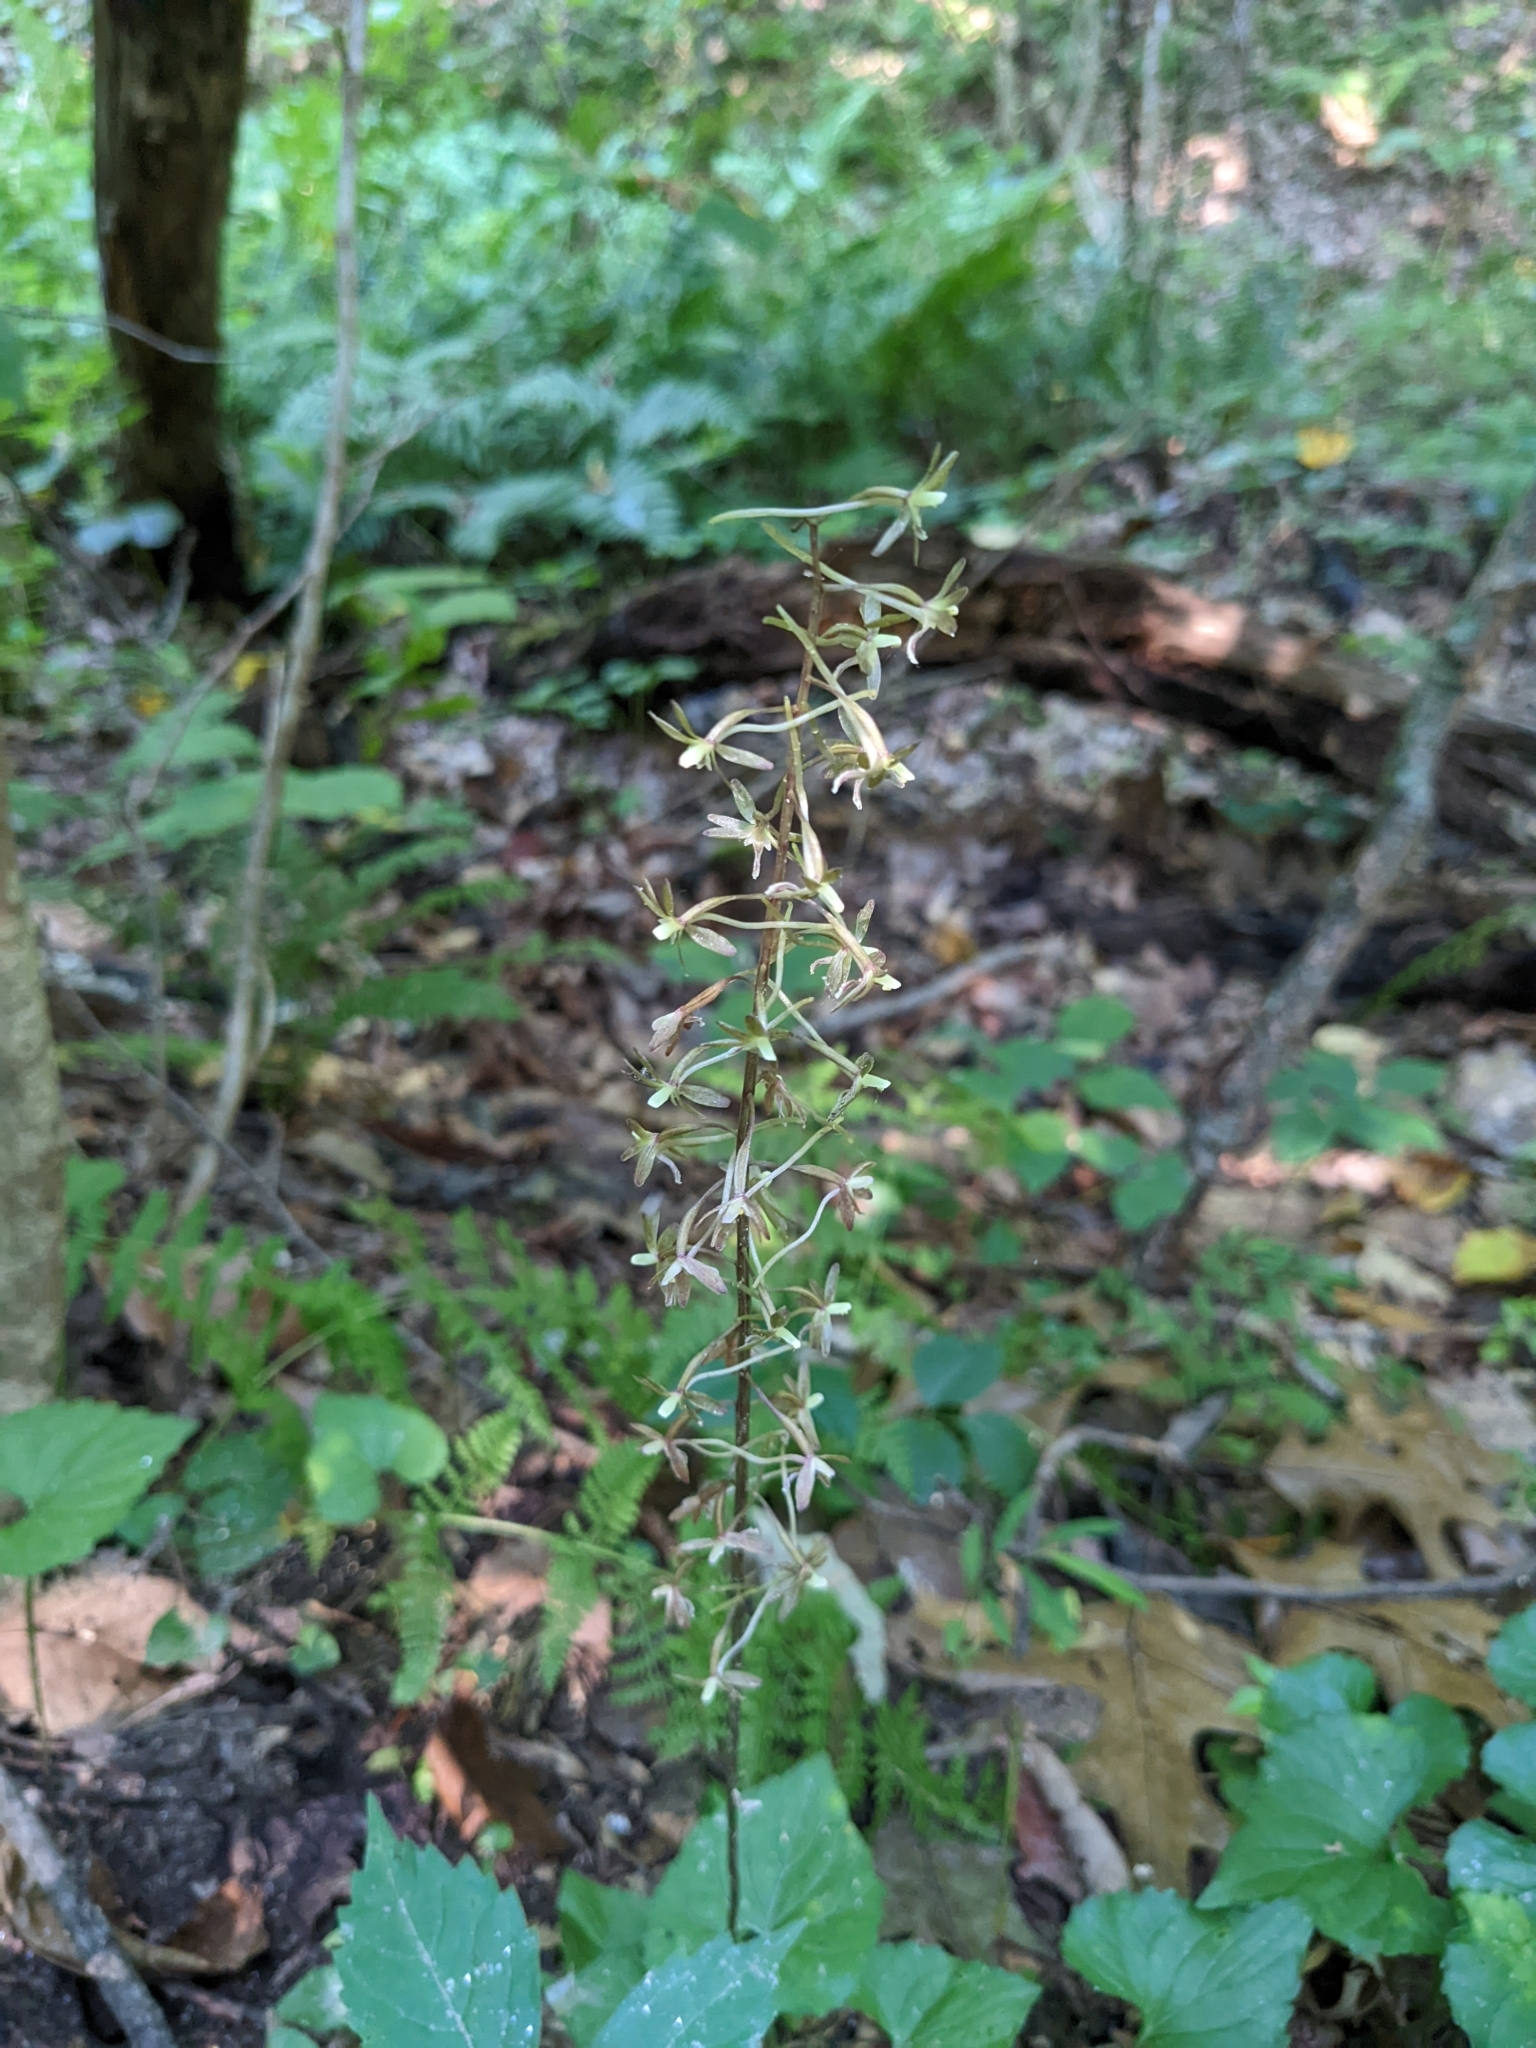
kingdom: Plantae
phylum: Tracheophyta
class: Liliopsida
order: Asparagales
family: Orchidaceae
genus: Tipularia
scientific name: Tipularia discolor
